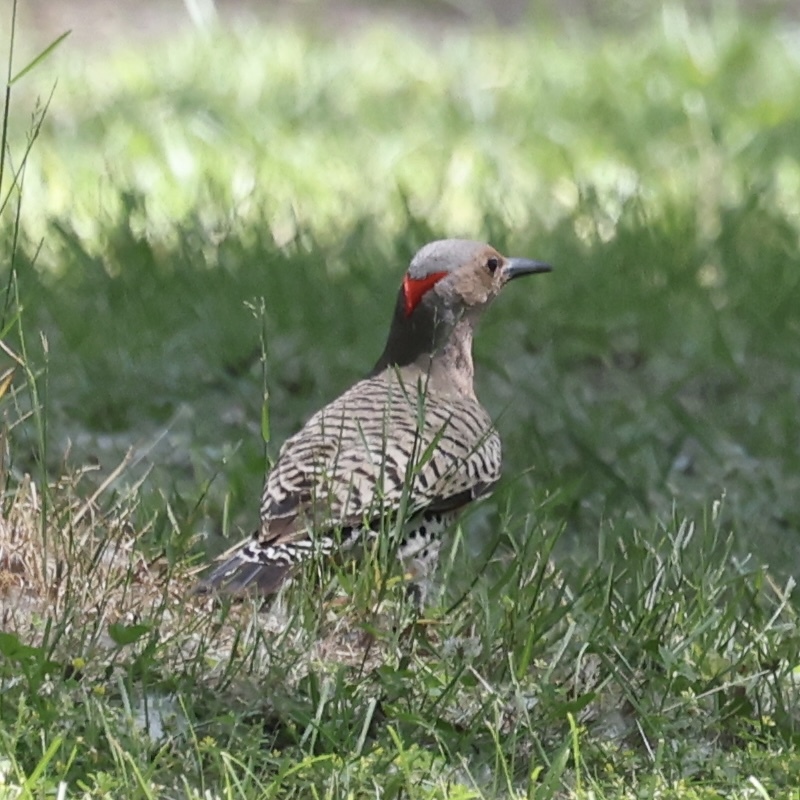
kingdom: Animalia
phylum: Chordata
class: Aves
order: Piciformes
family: Picidae
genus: Colaptes
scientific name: Colaptes auratus
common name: Northern flicker
